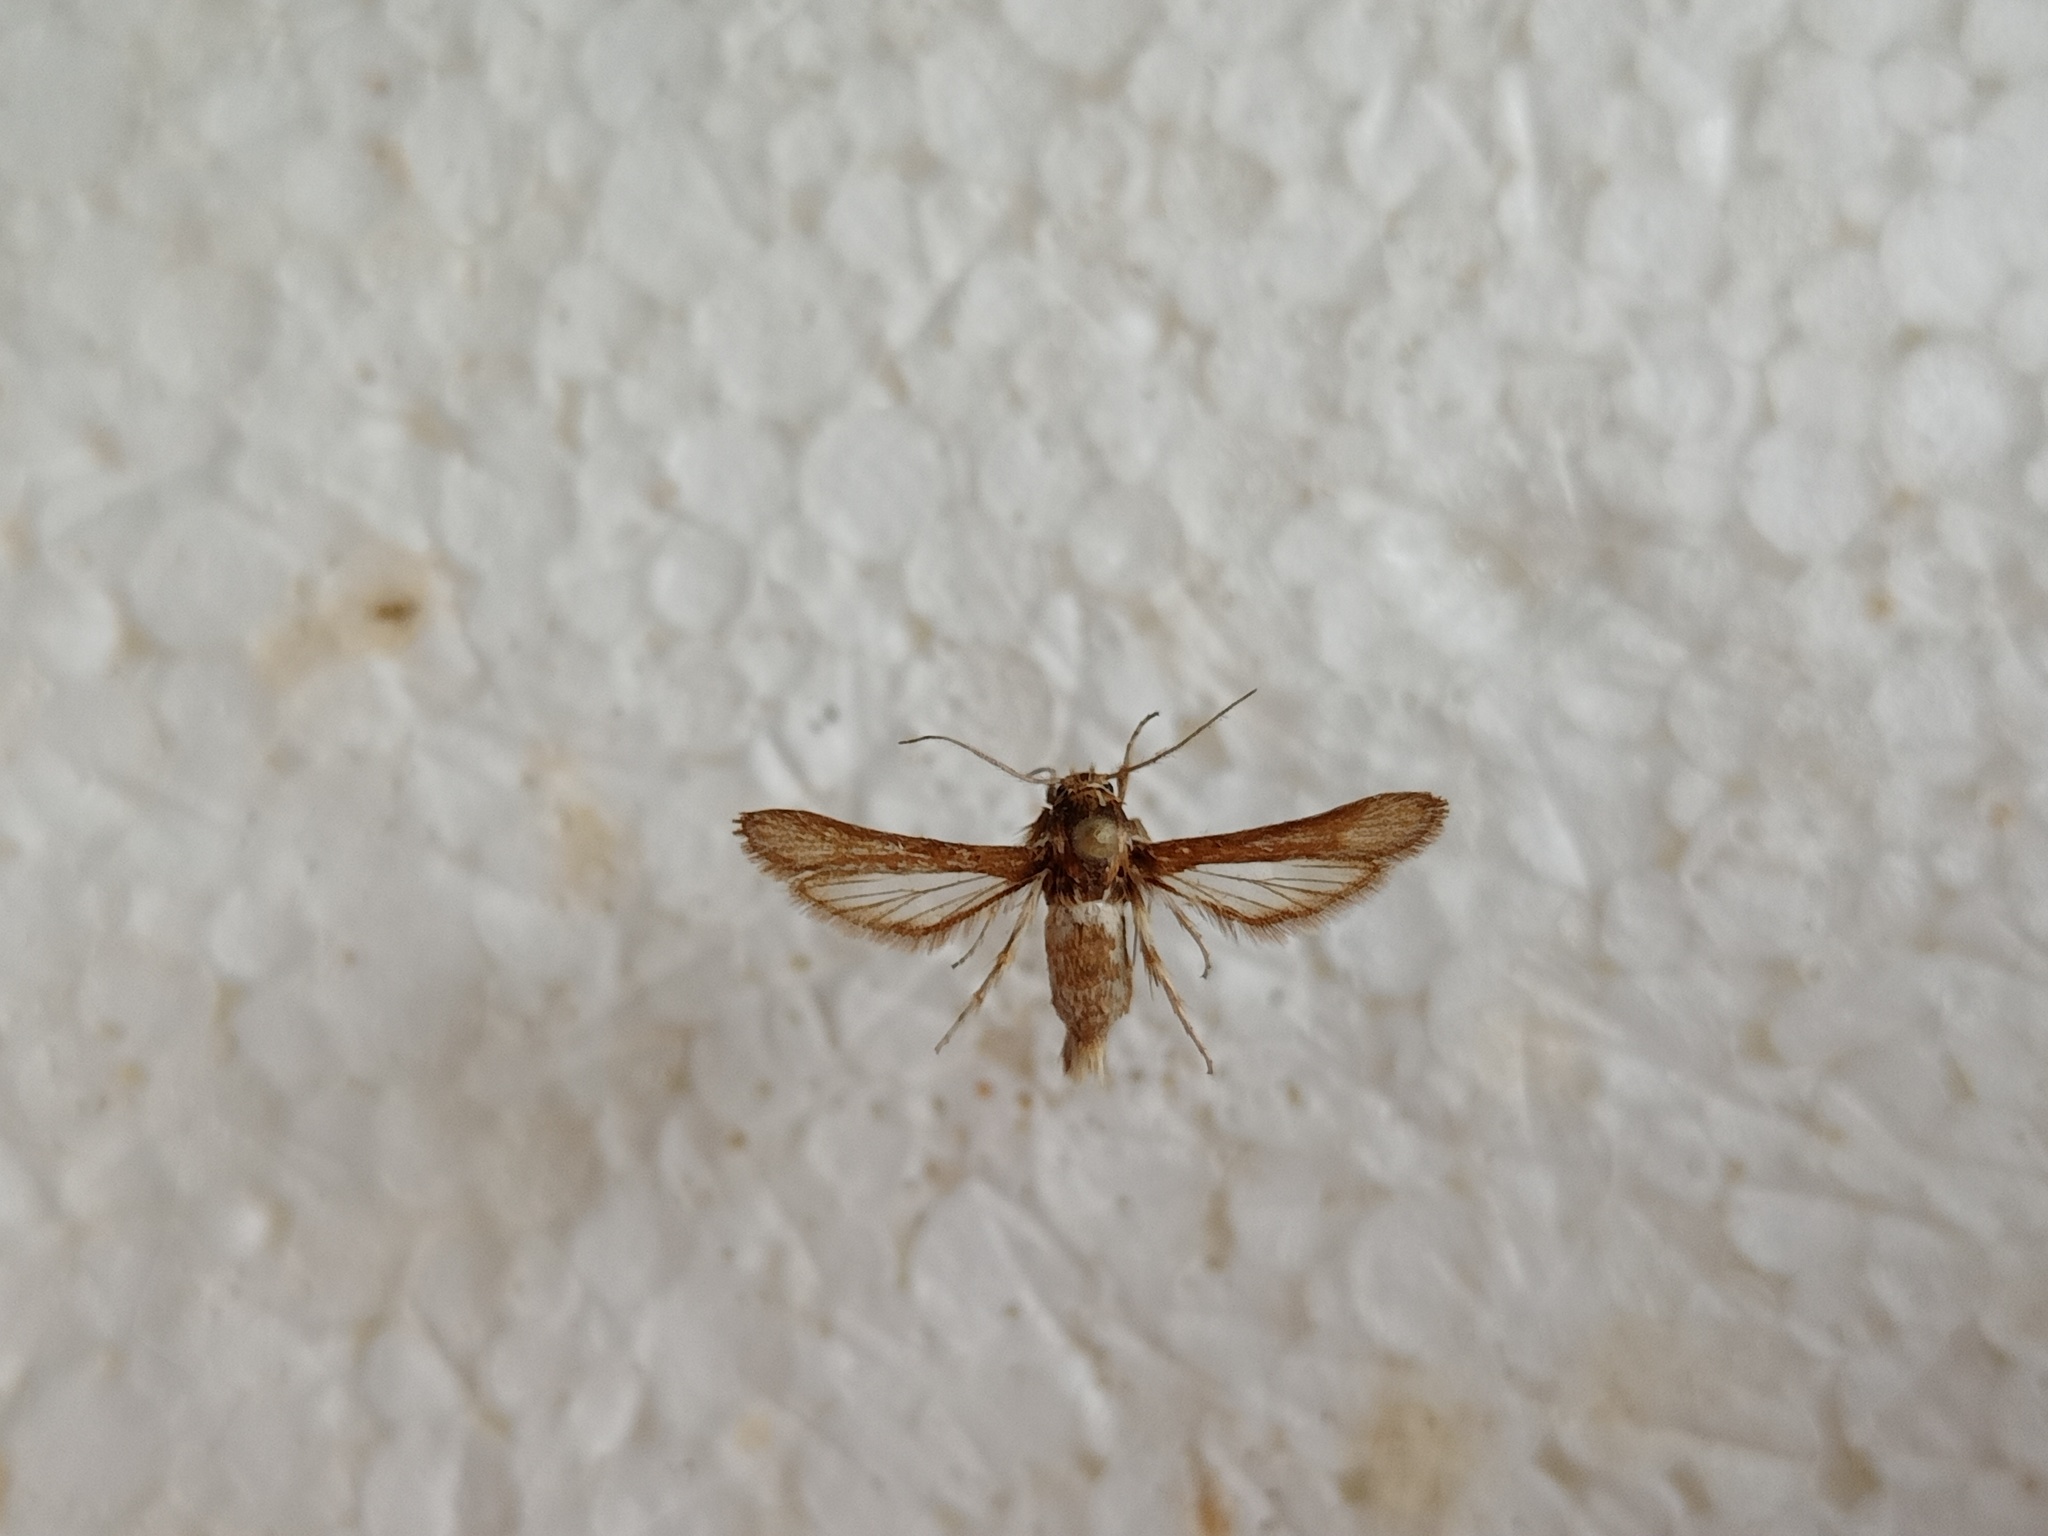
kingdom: Animalia
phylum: Arthropoda
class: Insecta
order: Lepidoptera
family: Sesiidae
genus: Microsphecia
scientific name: Microsphecia brosiformis
